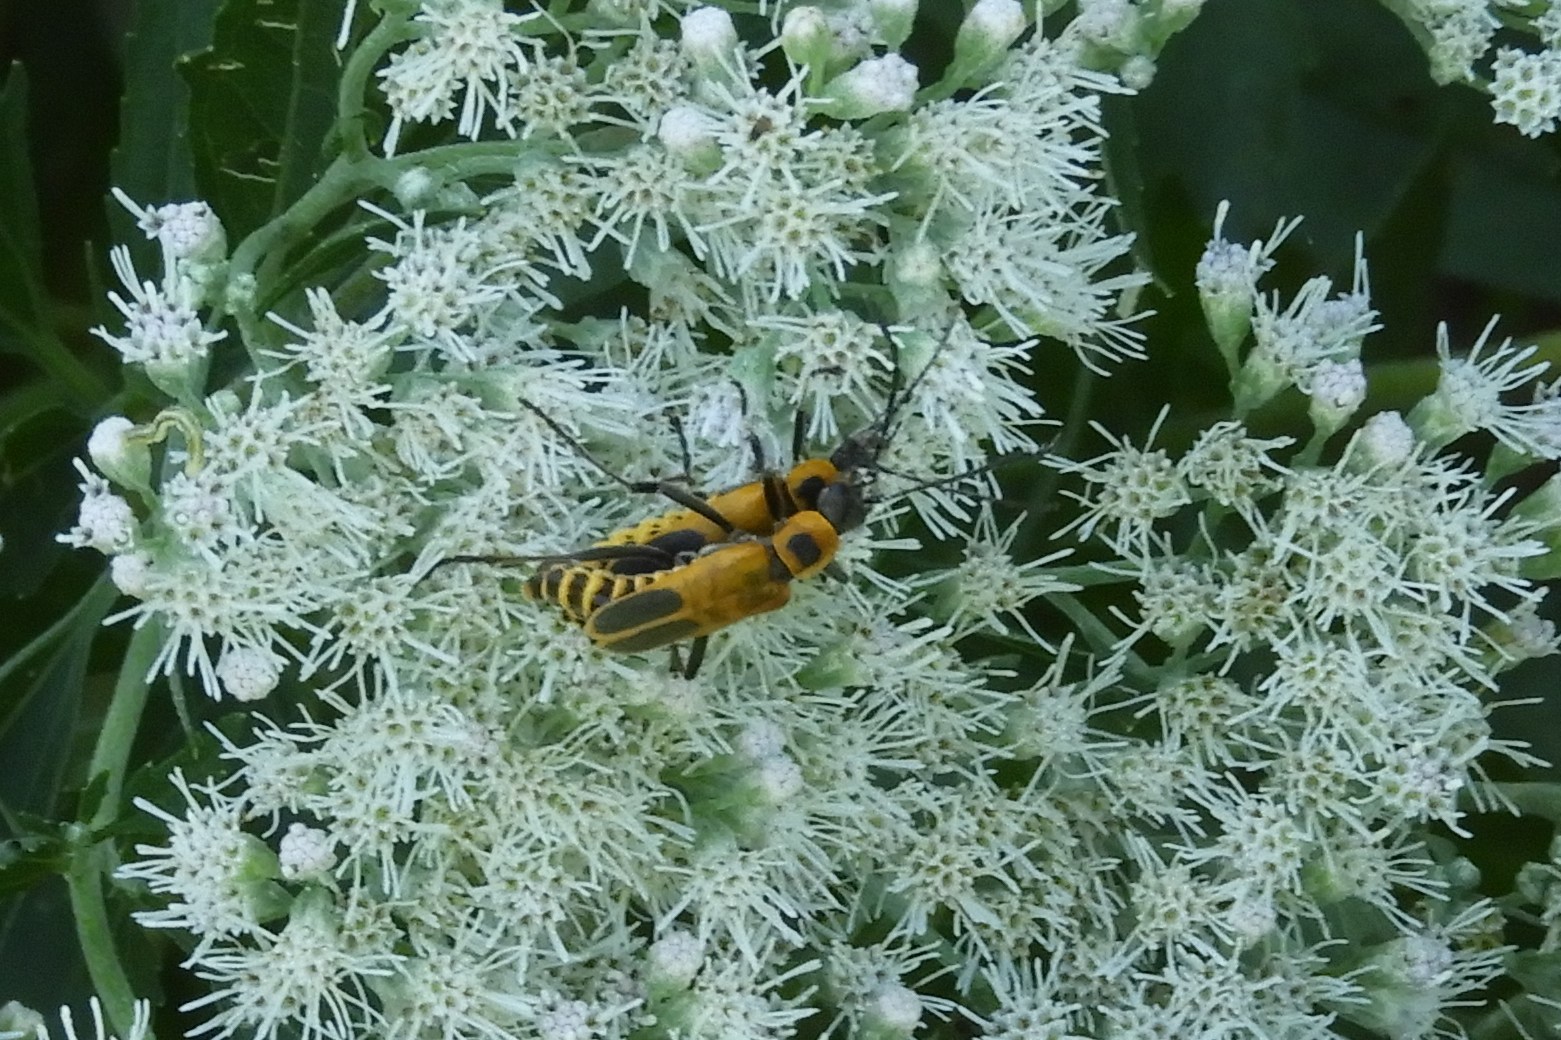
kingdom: Animalia
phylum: Arthropoda
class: Insecta
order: Coleoptera
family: Cantharidae
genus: Chauliognathus
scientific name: Chauliognathus pensylvanicus
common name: Goldenrod soldier beetle
